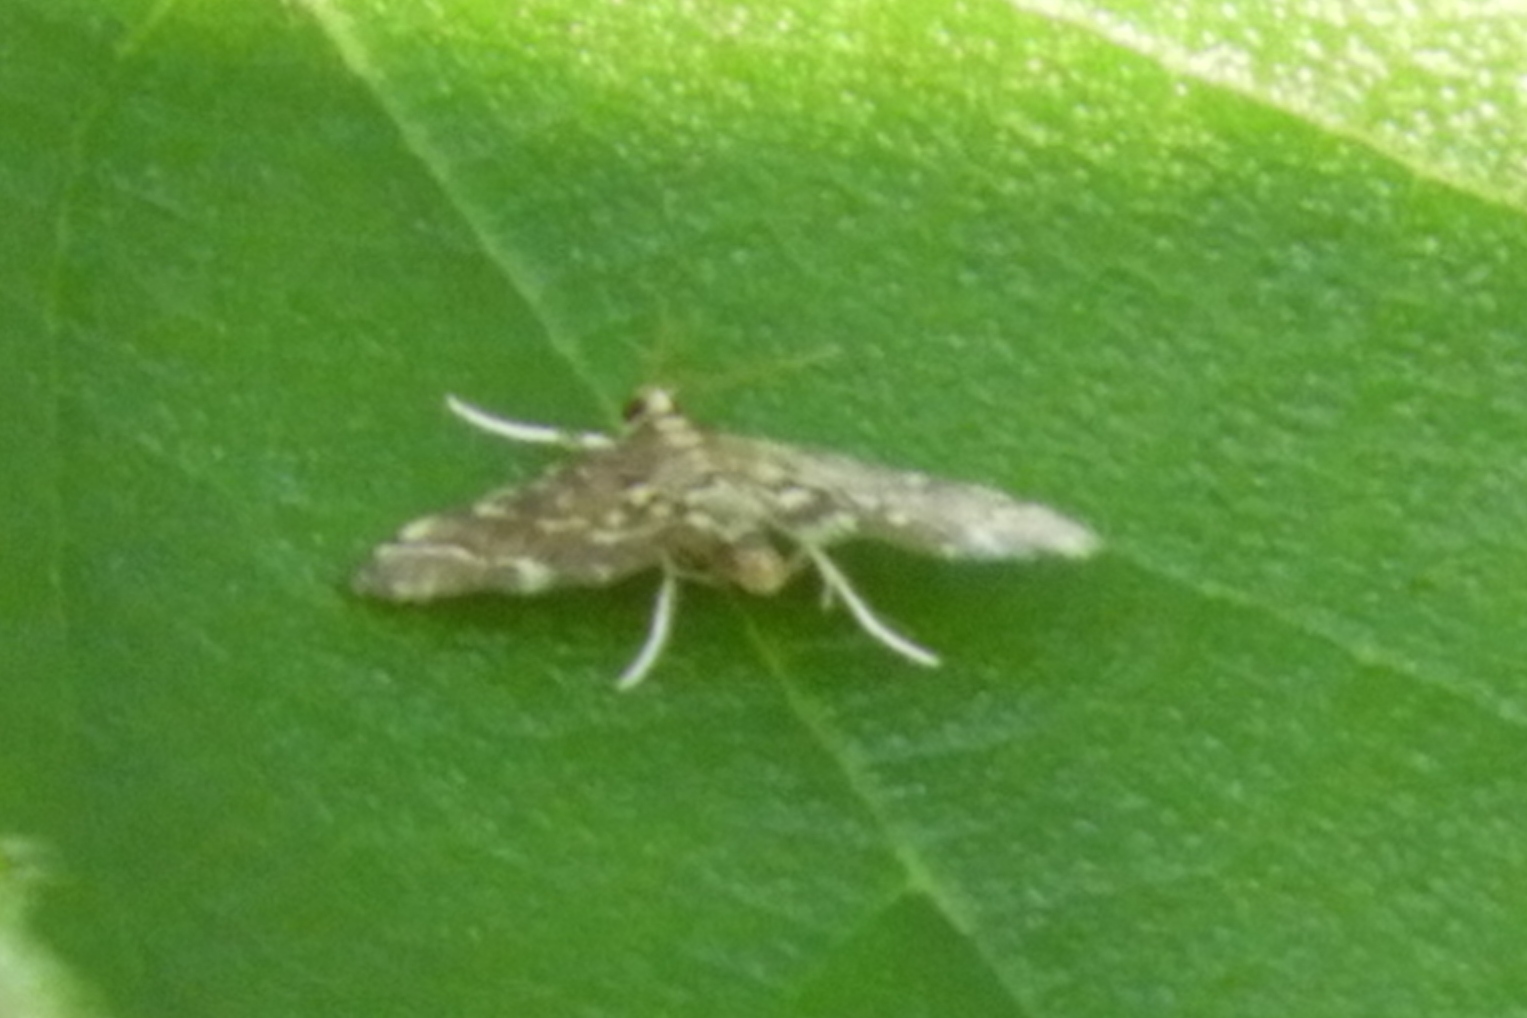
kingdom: Animalia
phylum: Arthropoda
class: Insecta
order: Lepidoptera
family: Crambidae
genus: Anageshna
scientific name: Anageshna primordialis
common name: Yellow-spotted webworm moth
